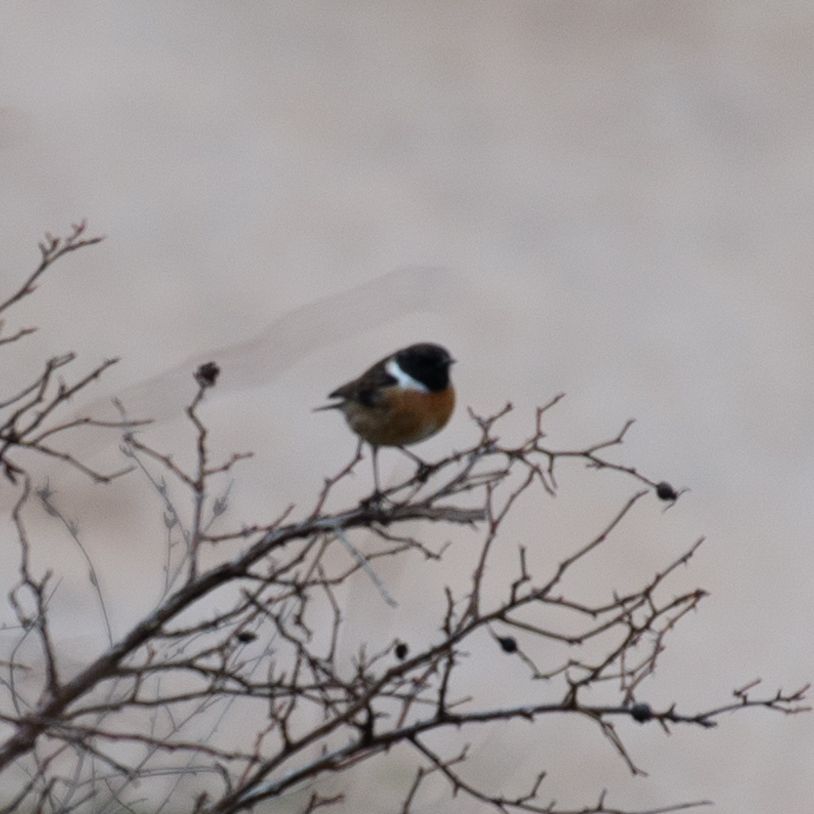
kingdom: Animalia
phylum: Chordata
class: Aves
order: Passeriformes
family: Muscicapidae
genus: Saxicola
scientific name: Saxicola rubicola
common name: European stonechat
